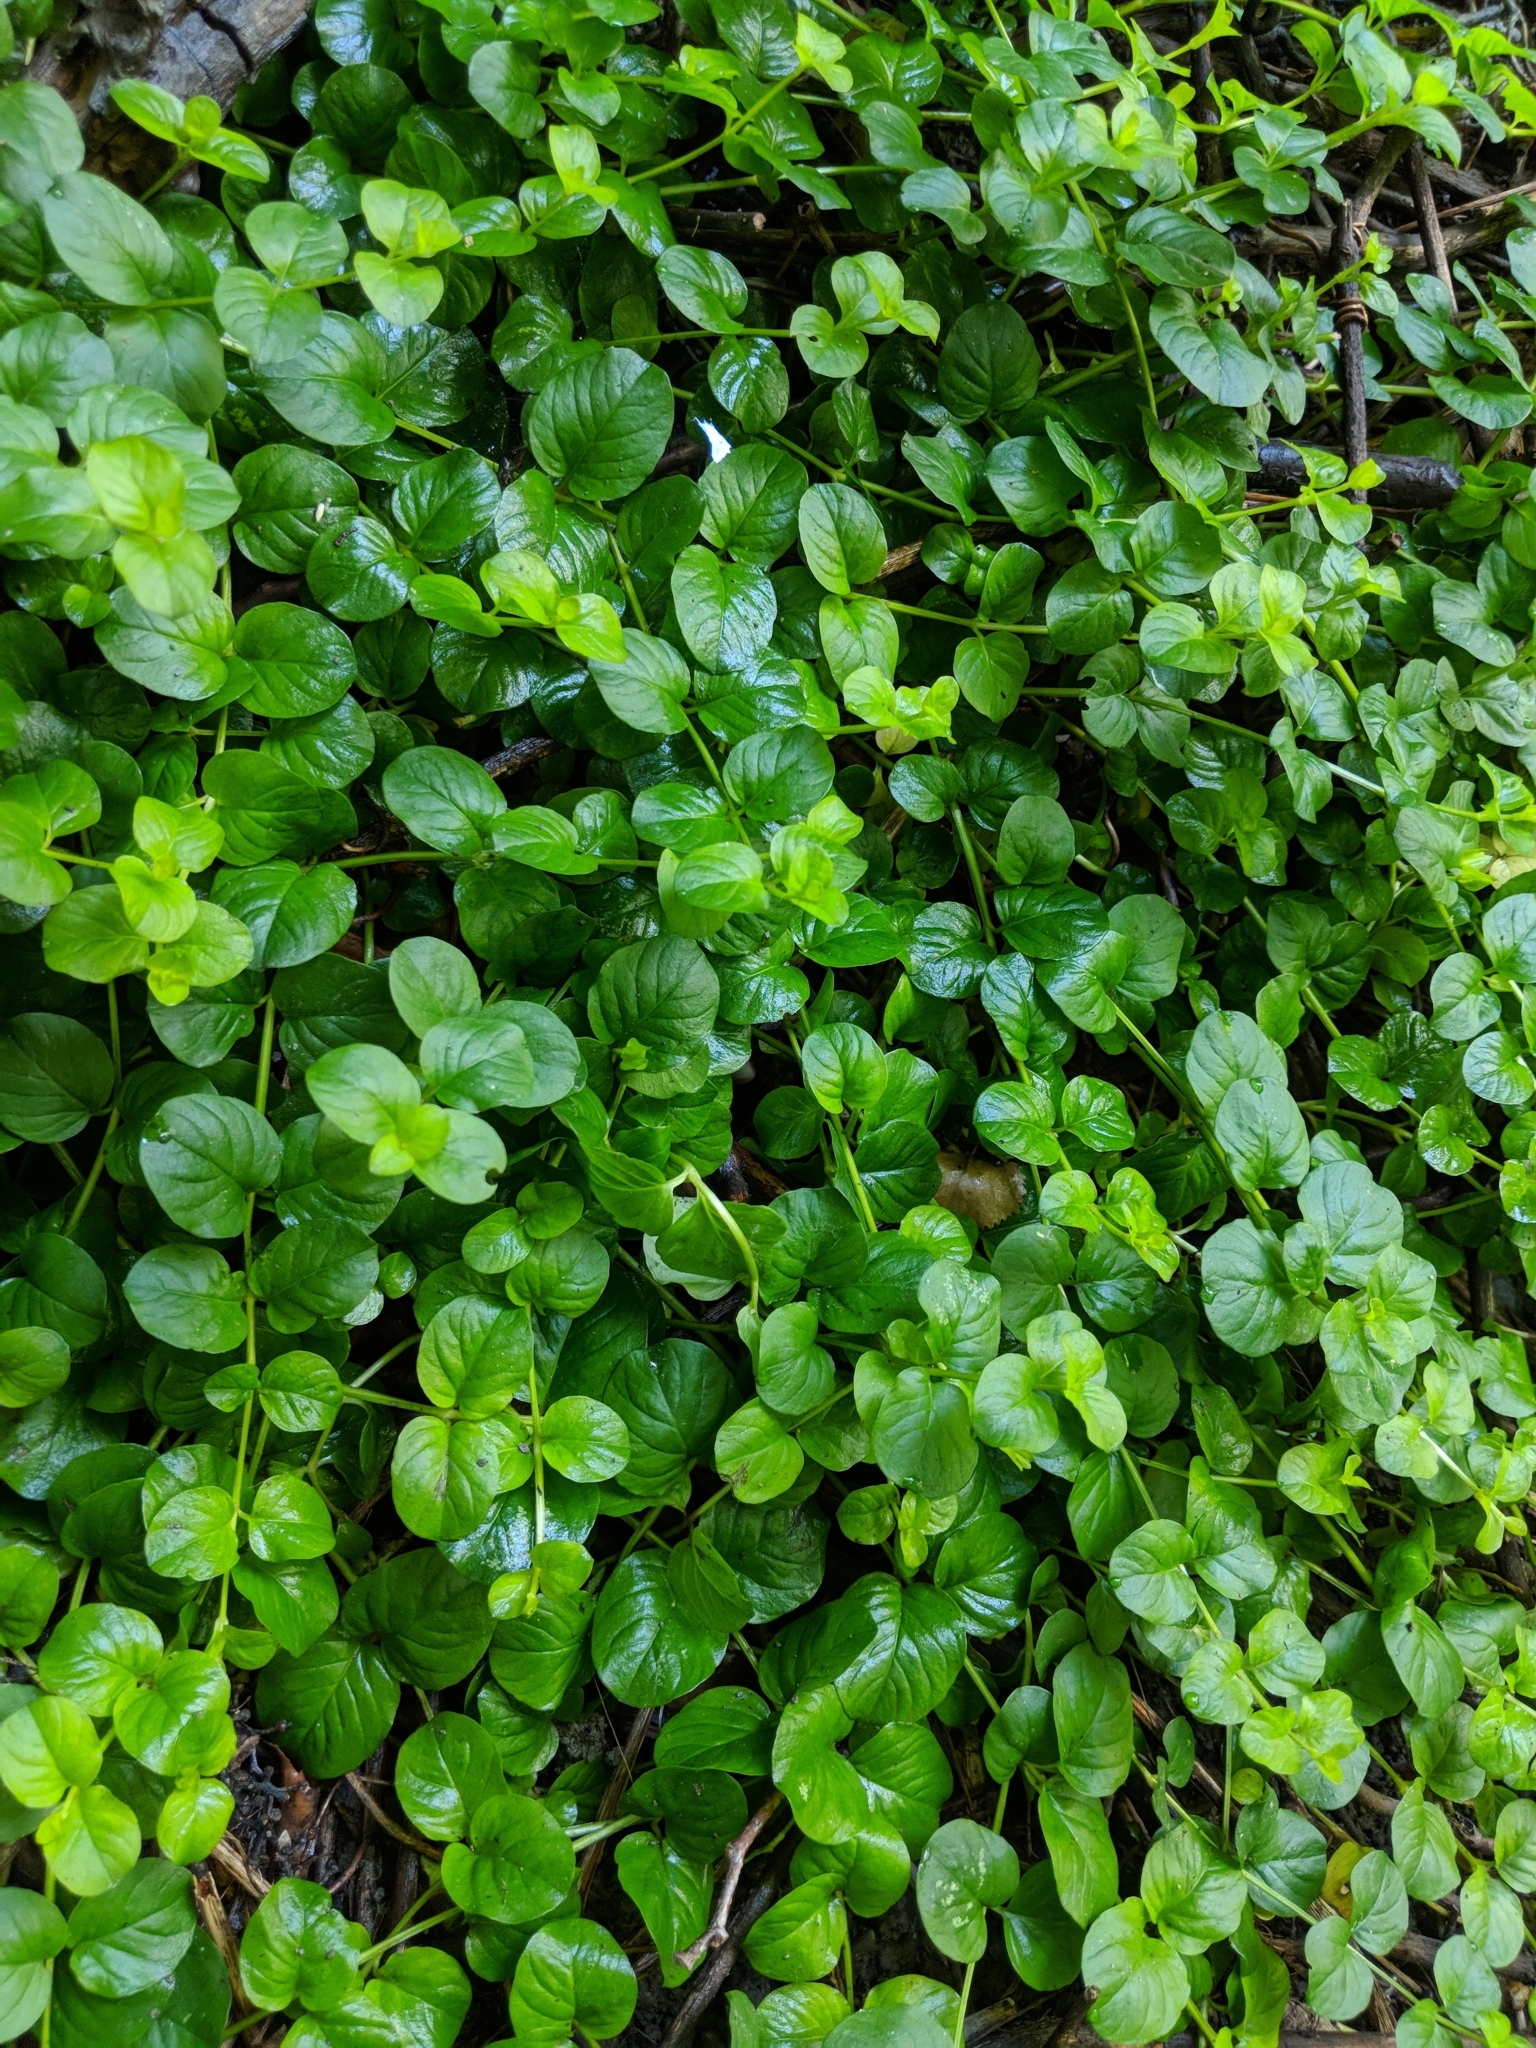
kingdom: Plantae
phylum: Tracheophyta
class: Magnoliopsida
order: Ericales
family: Primulaceae
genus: Lysimachia
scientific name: Lysimachia nummularia
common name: Moneywort
